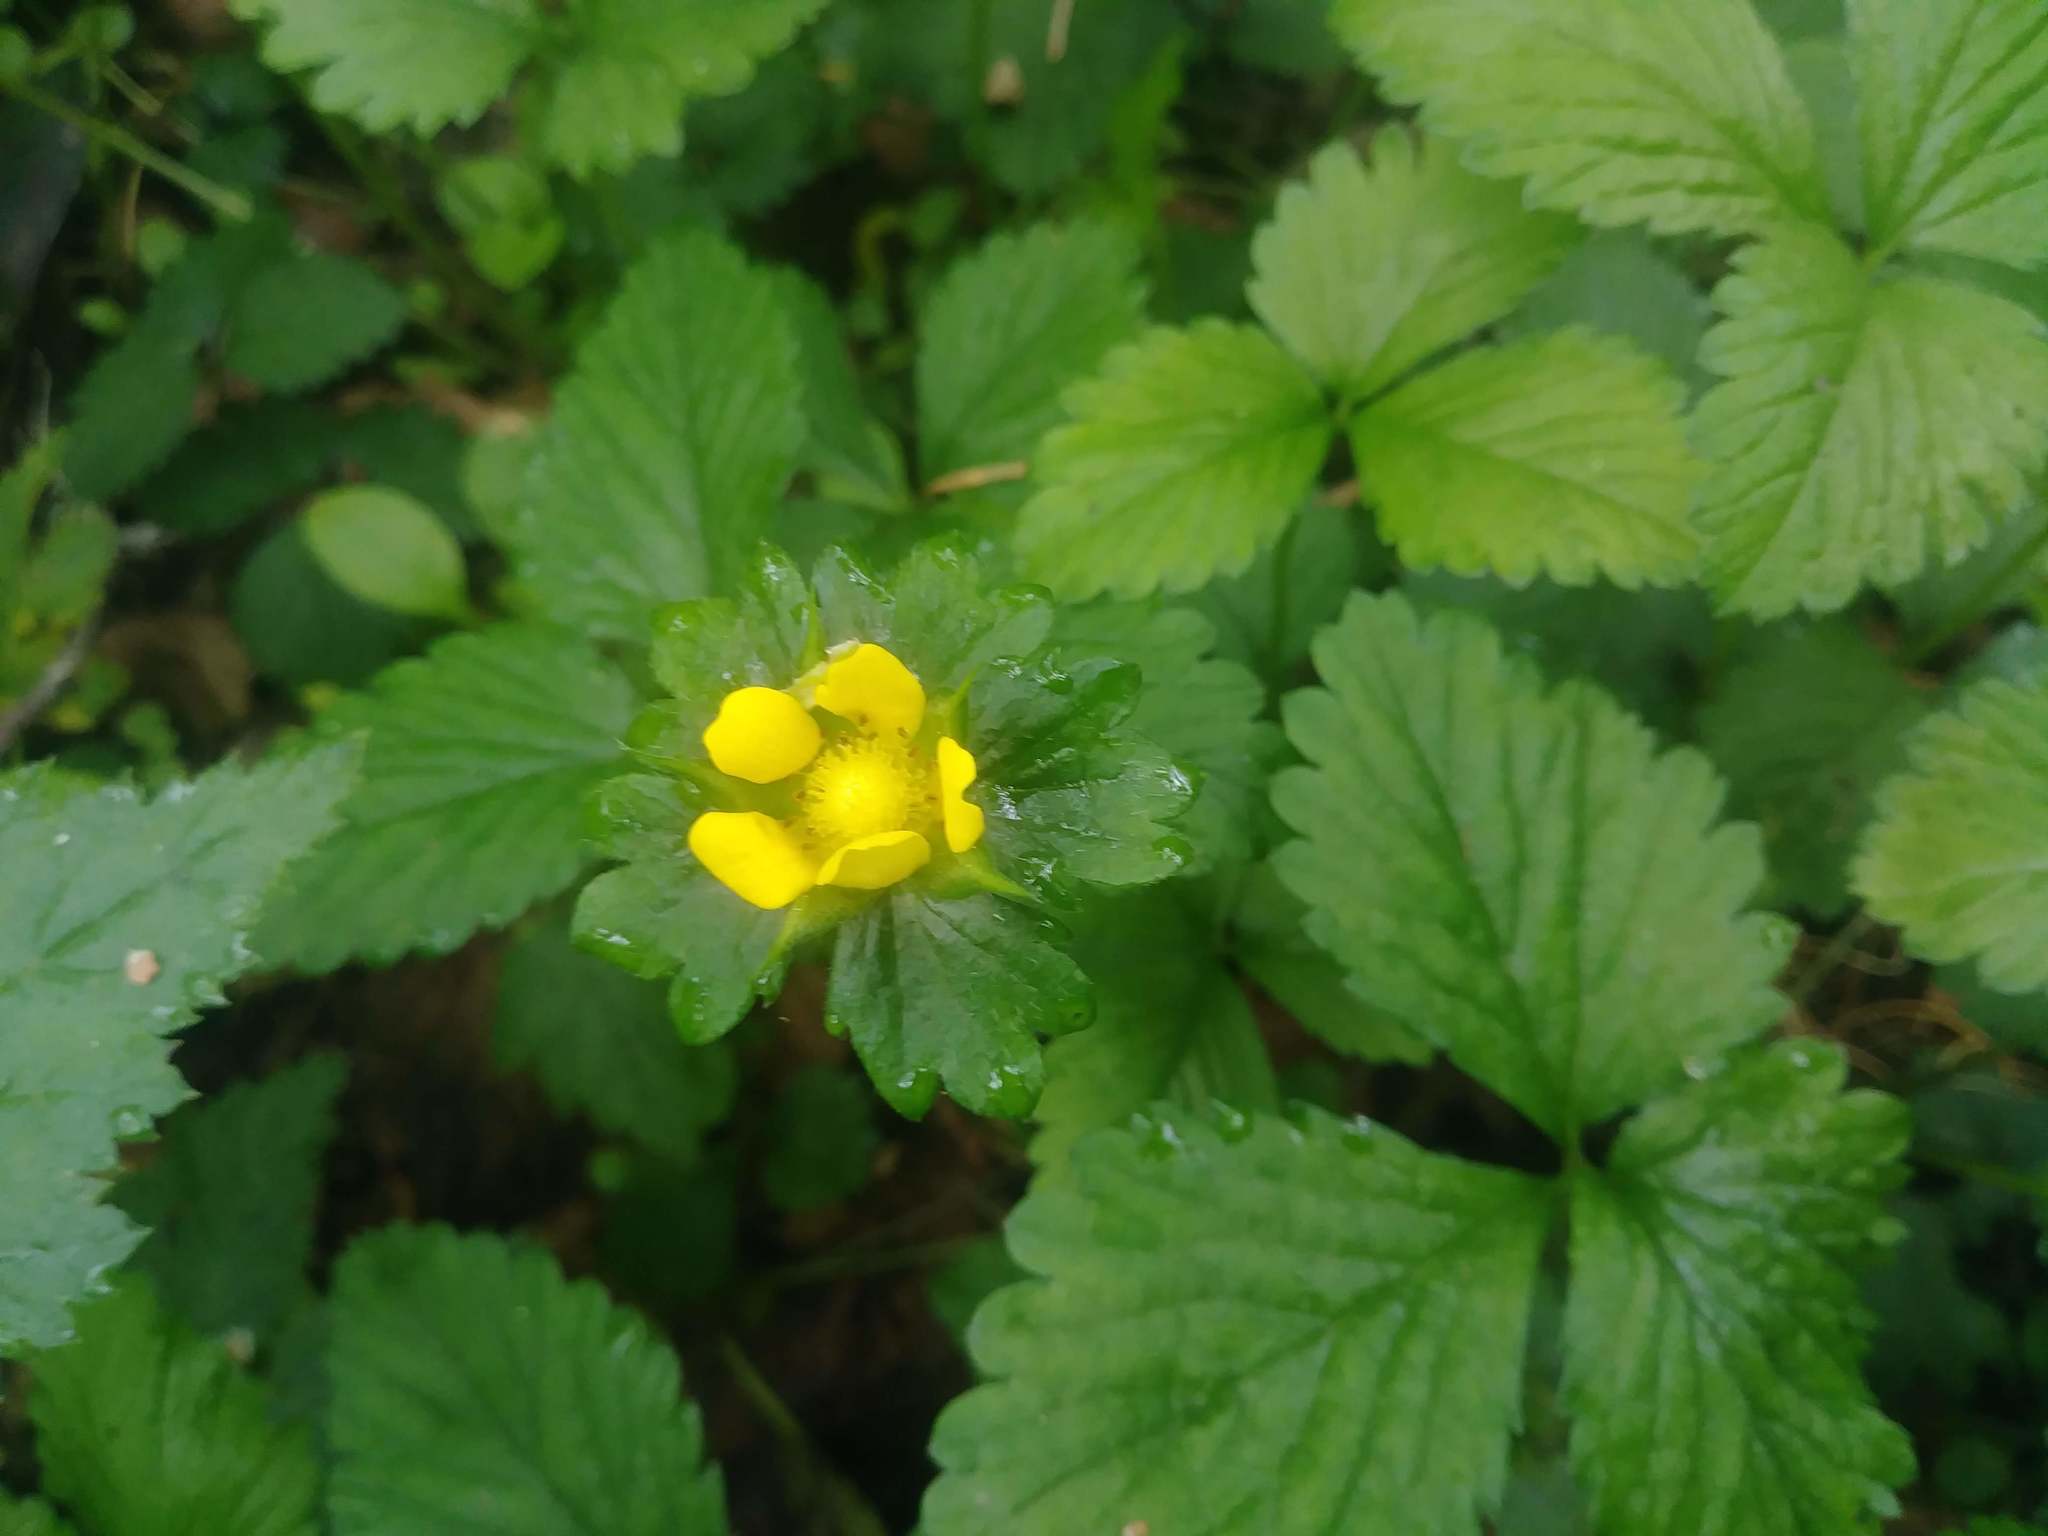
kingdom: Plantae
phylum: Tracheophyta
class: Magnoliopsida
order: Rosales
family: Rosaceae
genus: Potentilla
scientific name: Potentilla indica
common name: Yellow-flowered strawberry
